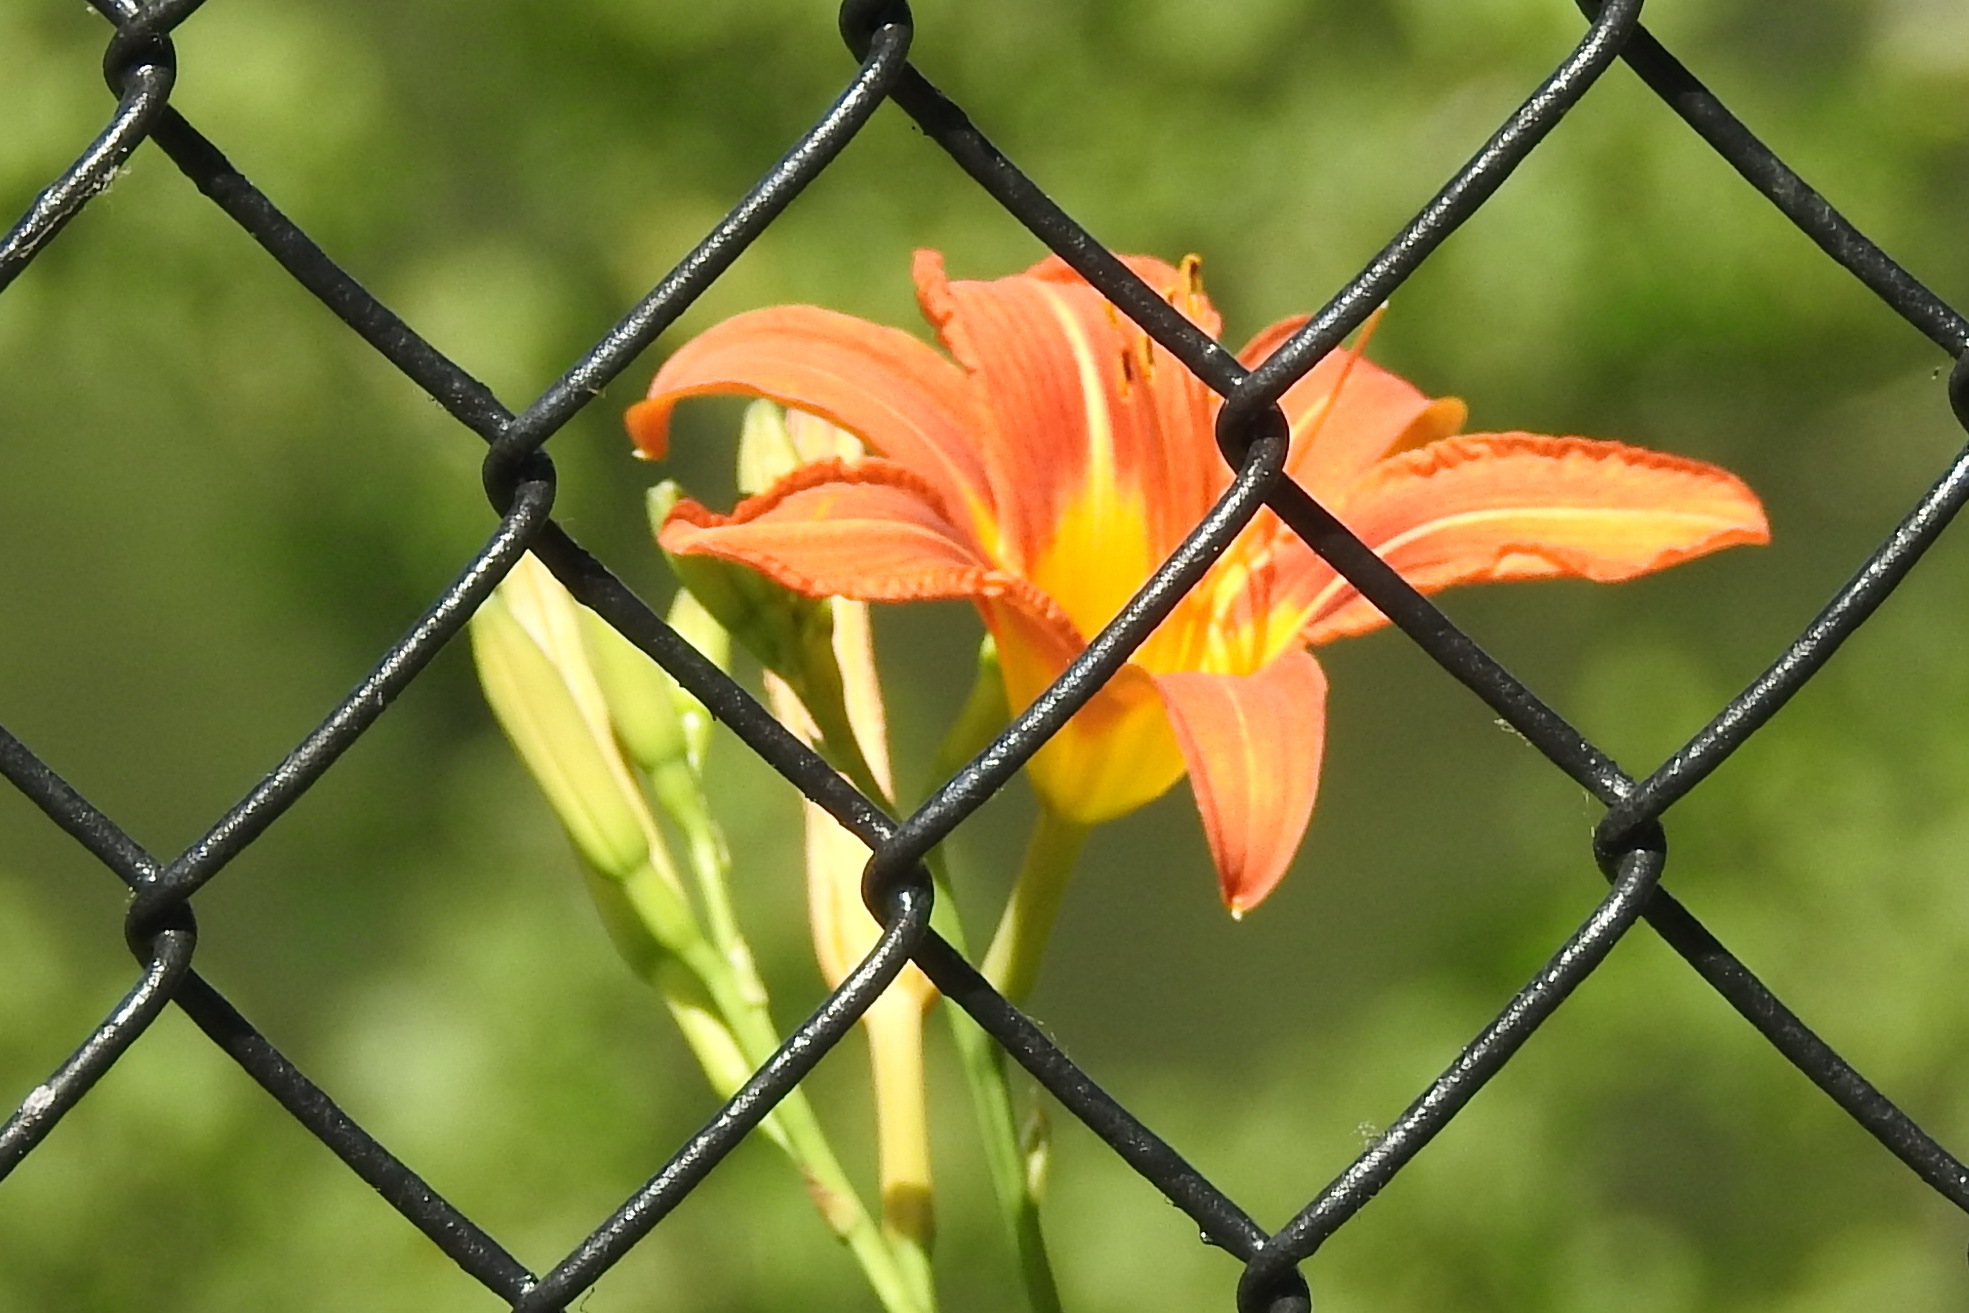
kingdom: Plantae
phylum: Tracheophyta
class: Liliopsida
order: Asparagales
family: Asphodelaceae
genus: Hemerocallis
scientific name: Hemerocallis fulva
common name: Orange day-lily
